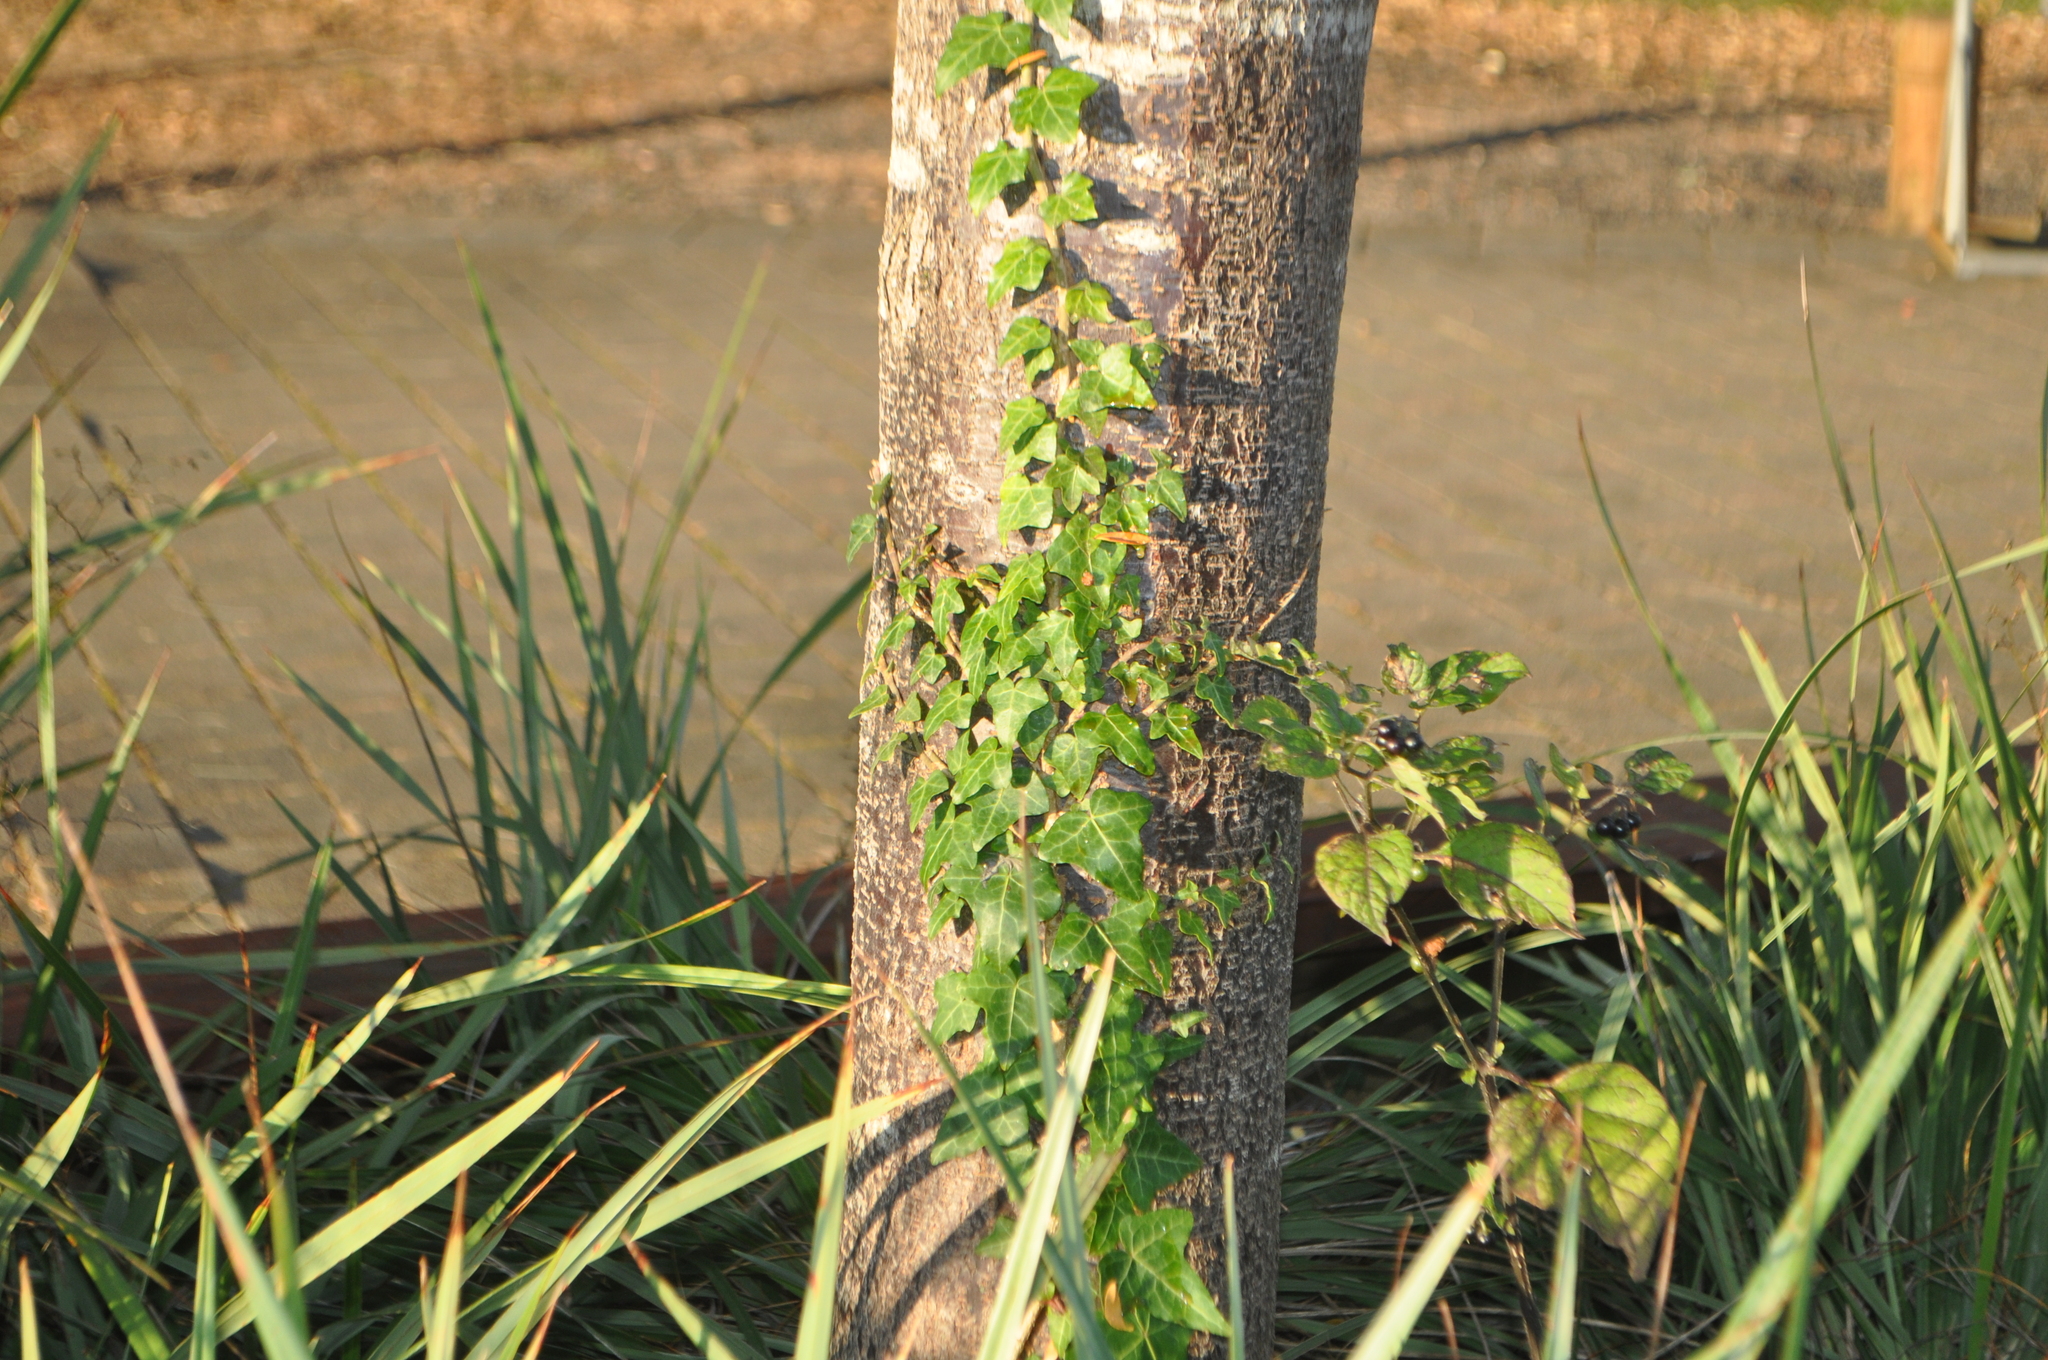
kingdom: Plantae
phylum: Tracheophyta
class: Magnoliopsida
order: Apiales
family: Araliaceae
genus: Hedera
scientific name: Hedera helix
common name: Ivy
